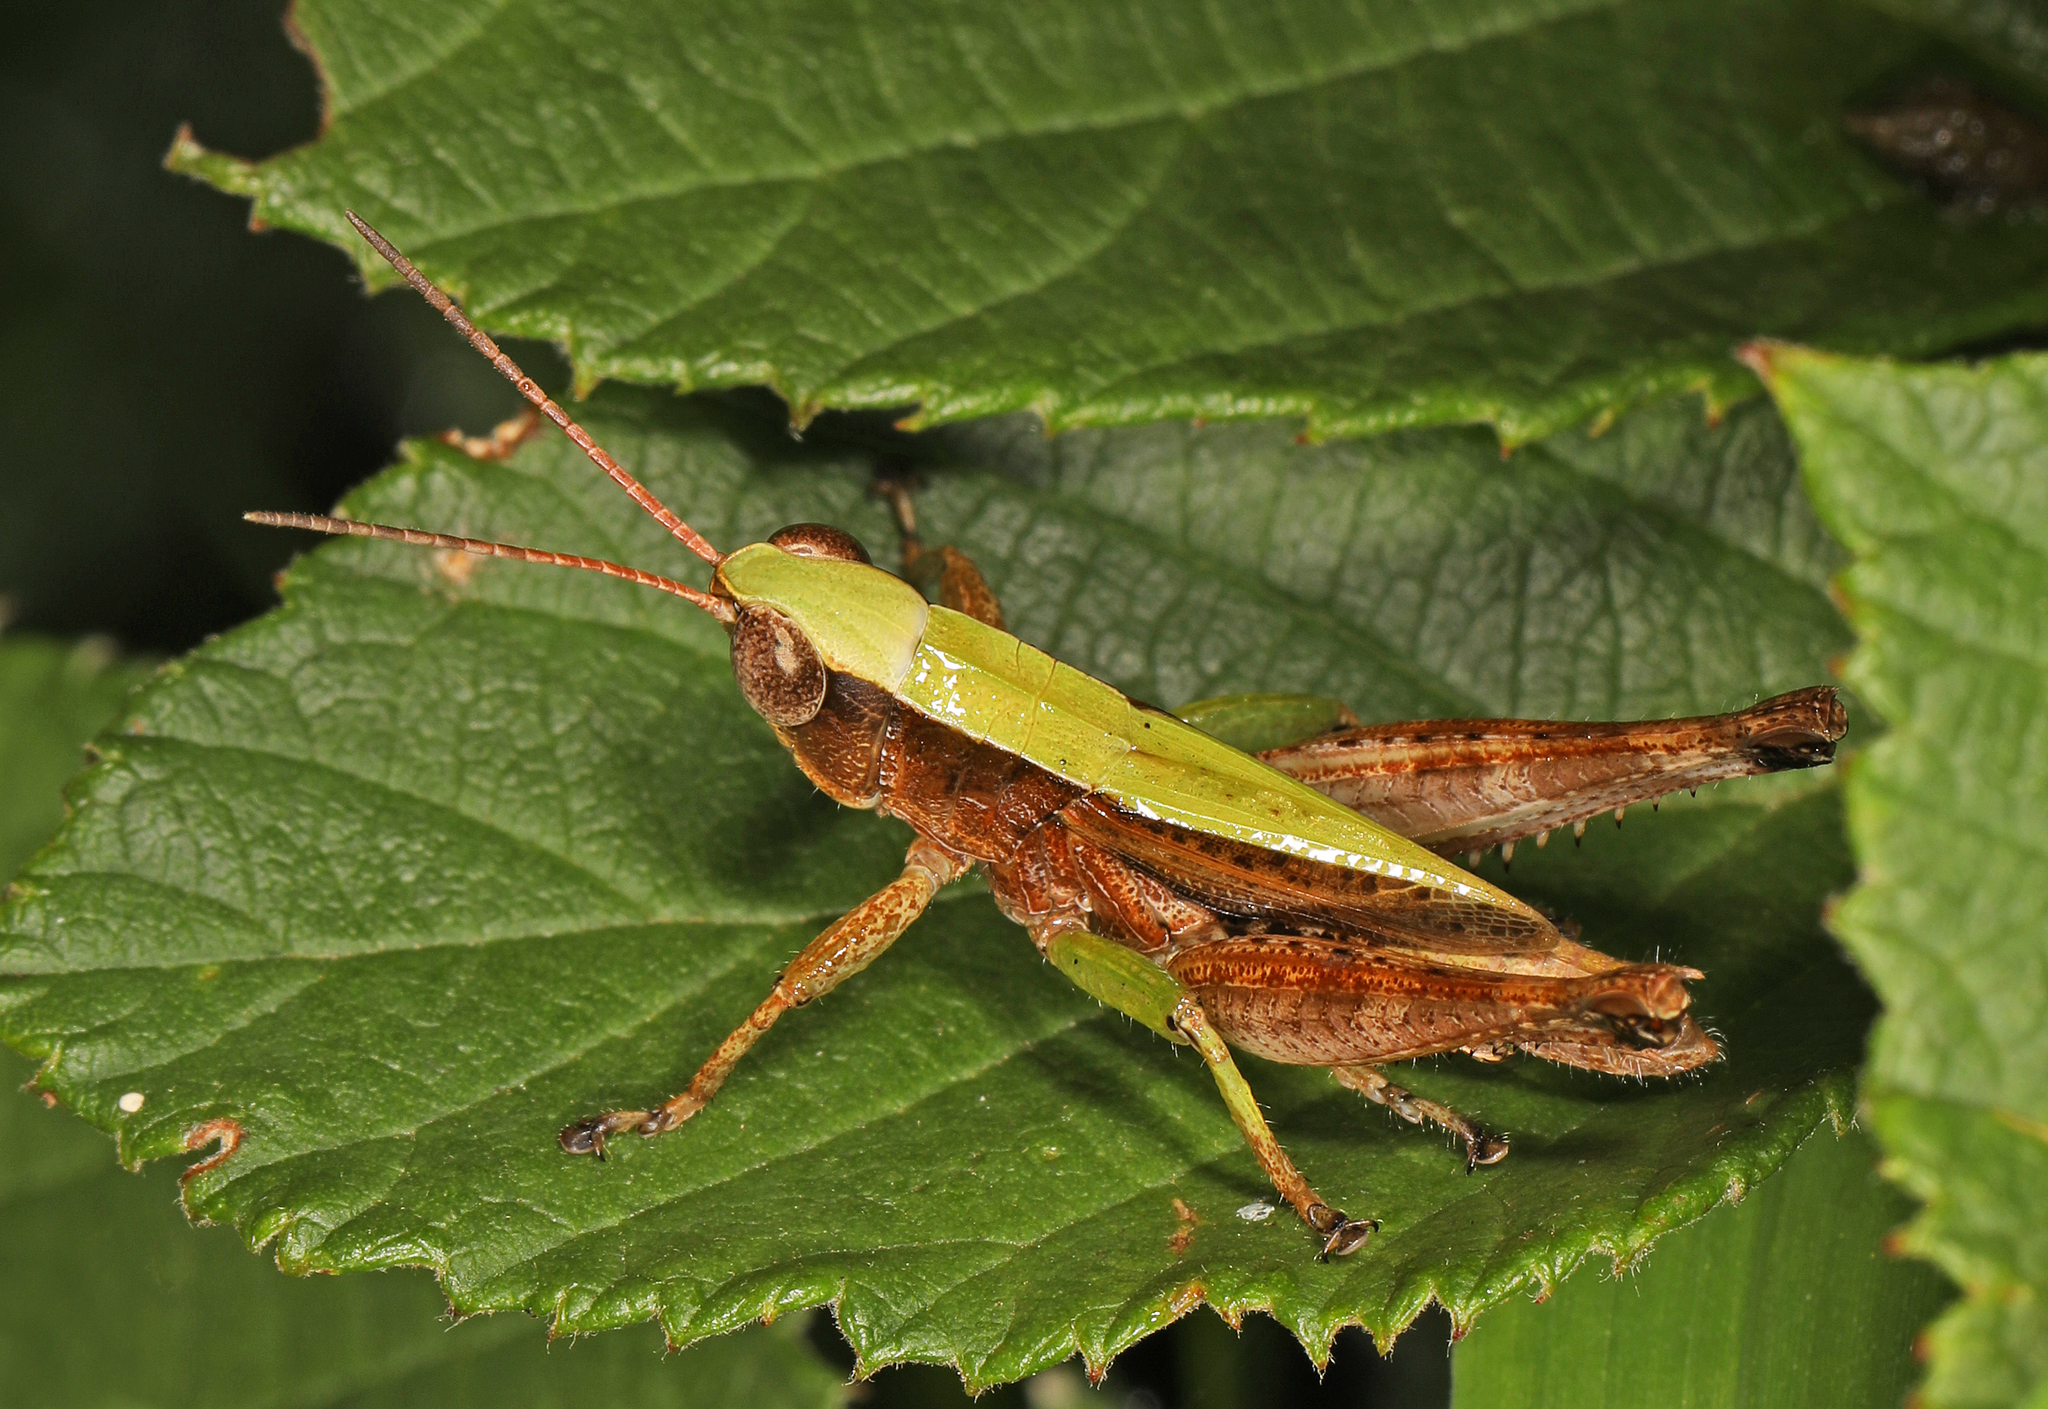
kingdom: Animalia
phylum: Arthropoda
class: Insecta
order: Orthoptera
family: Acrididae
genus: Dichromorpha
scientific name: Dichromorpha viridis
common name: Short-winged green grasshopper
